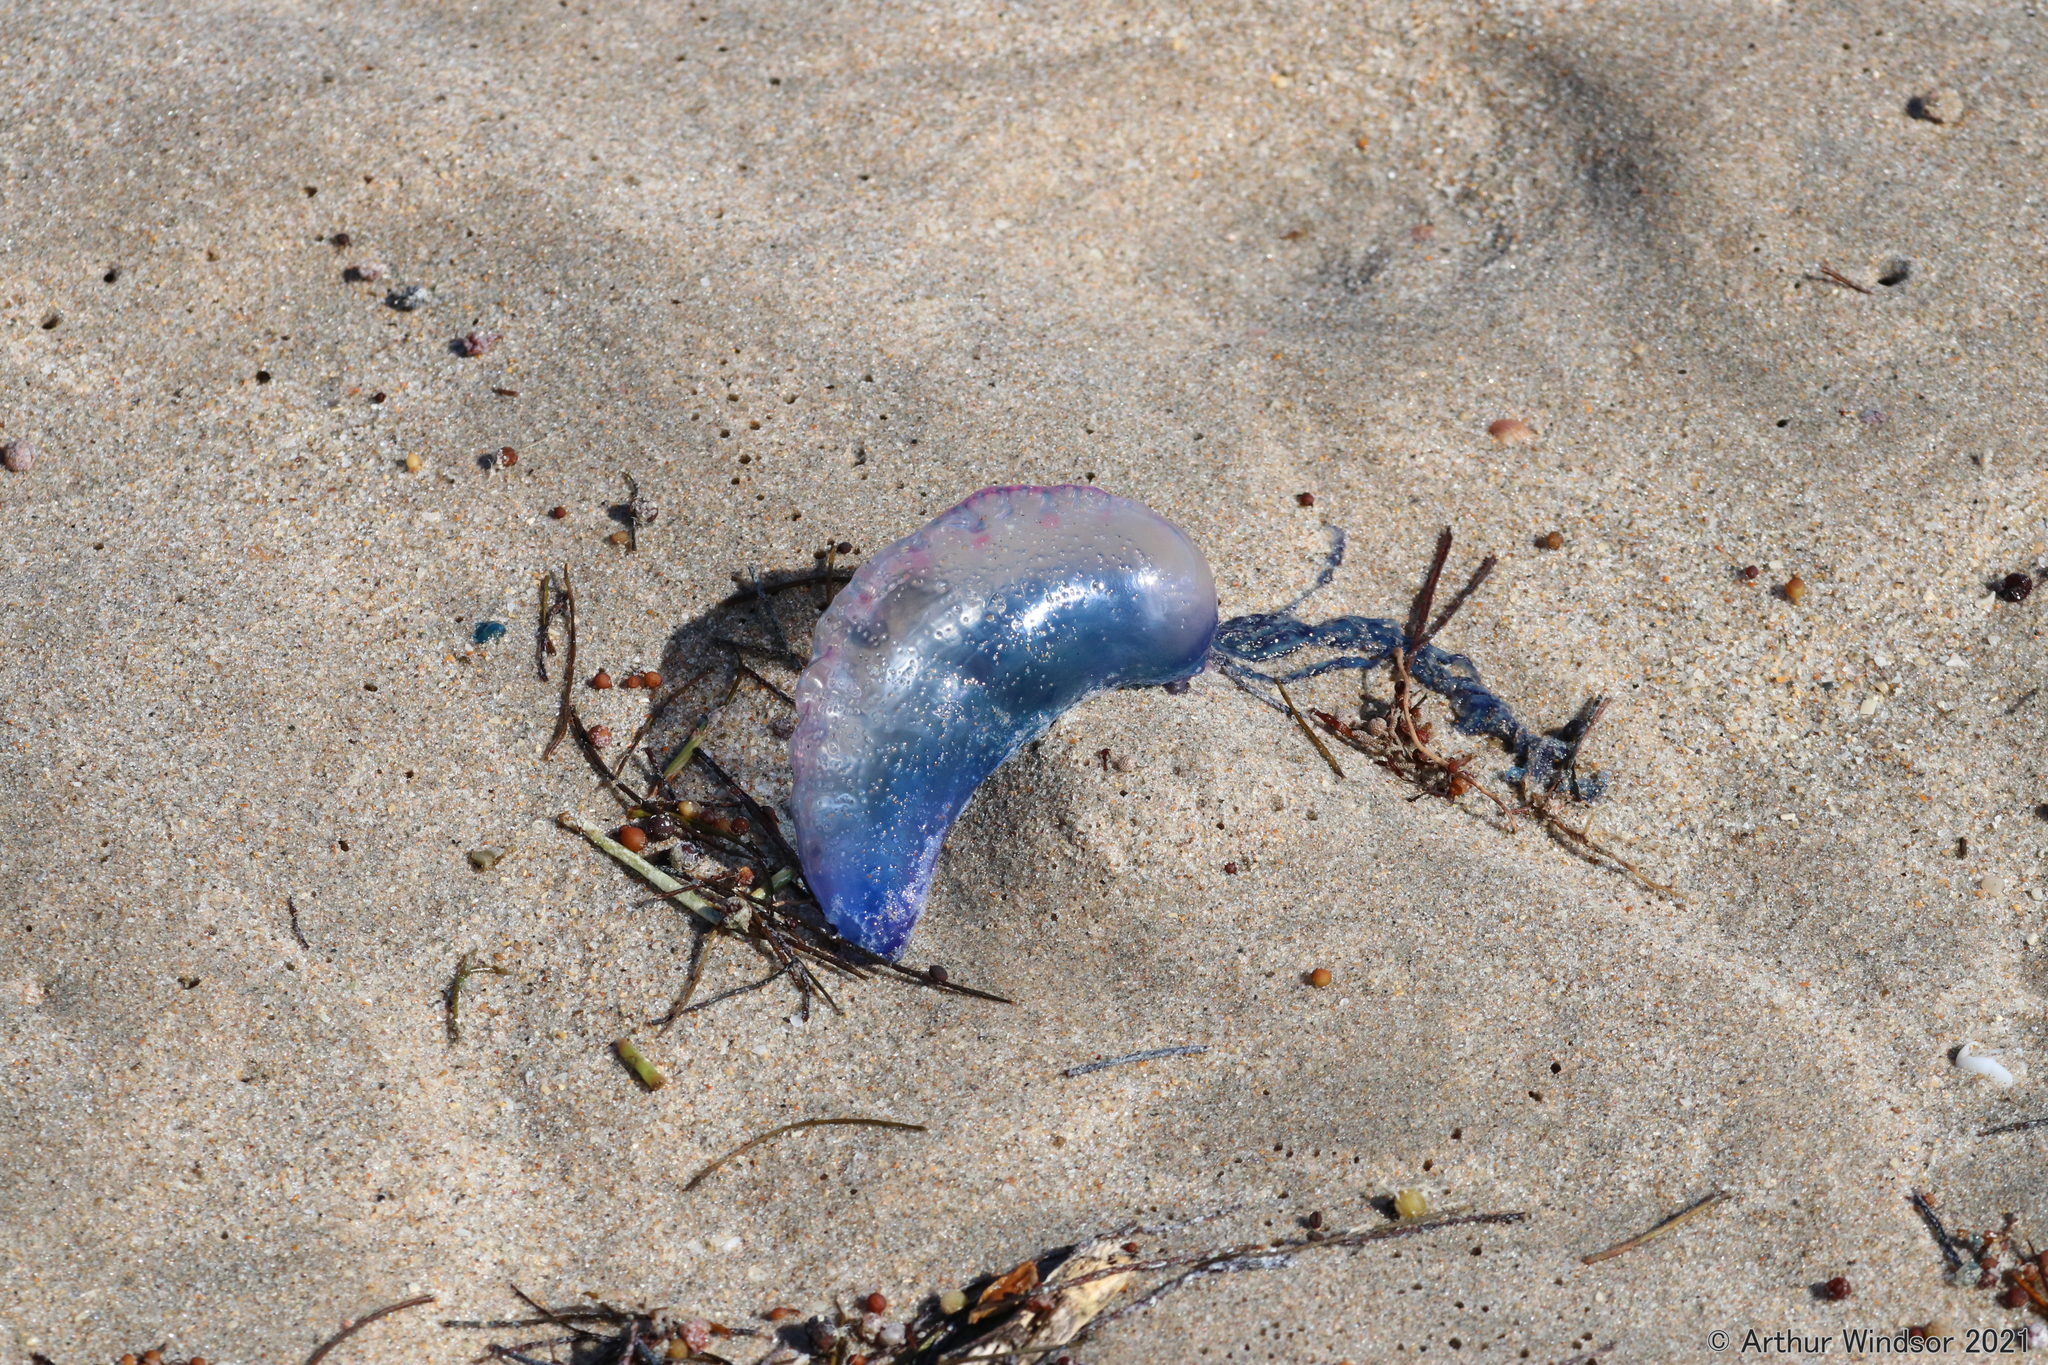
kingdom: Animalia
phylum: Cnidaria
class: Hydrozoa
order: Siphonophorae
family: Physaliidae
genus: Physalia
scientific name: Physalia physalis
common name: Portuguese man-of-war
